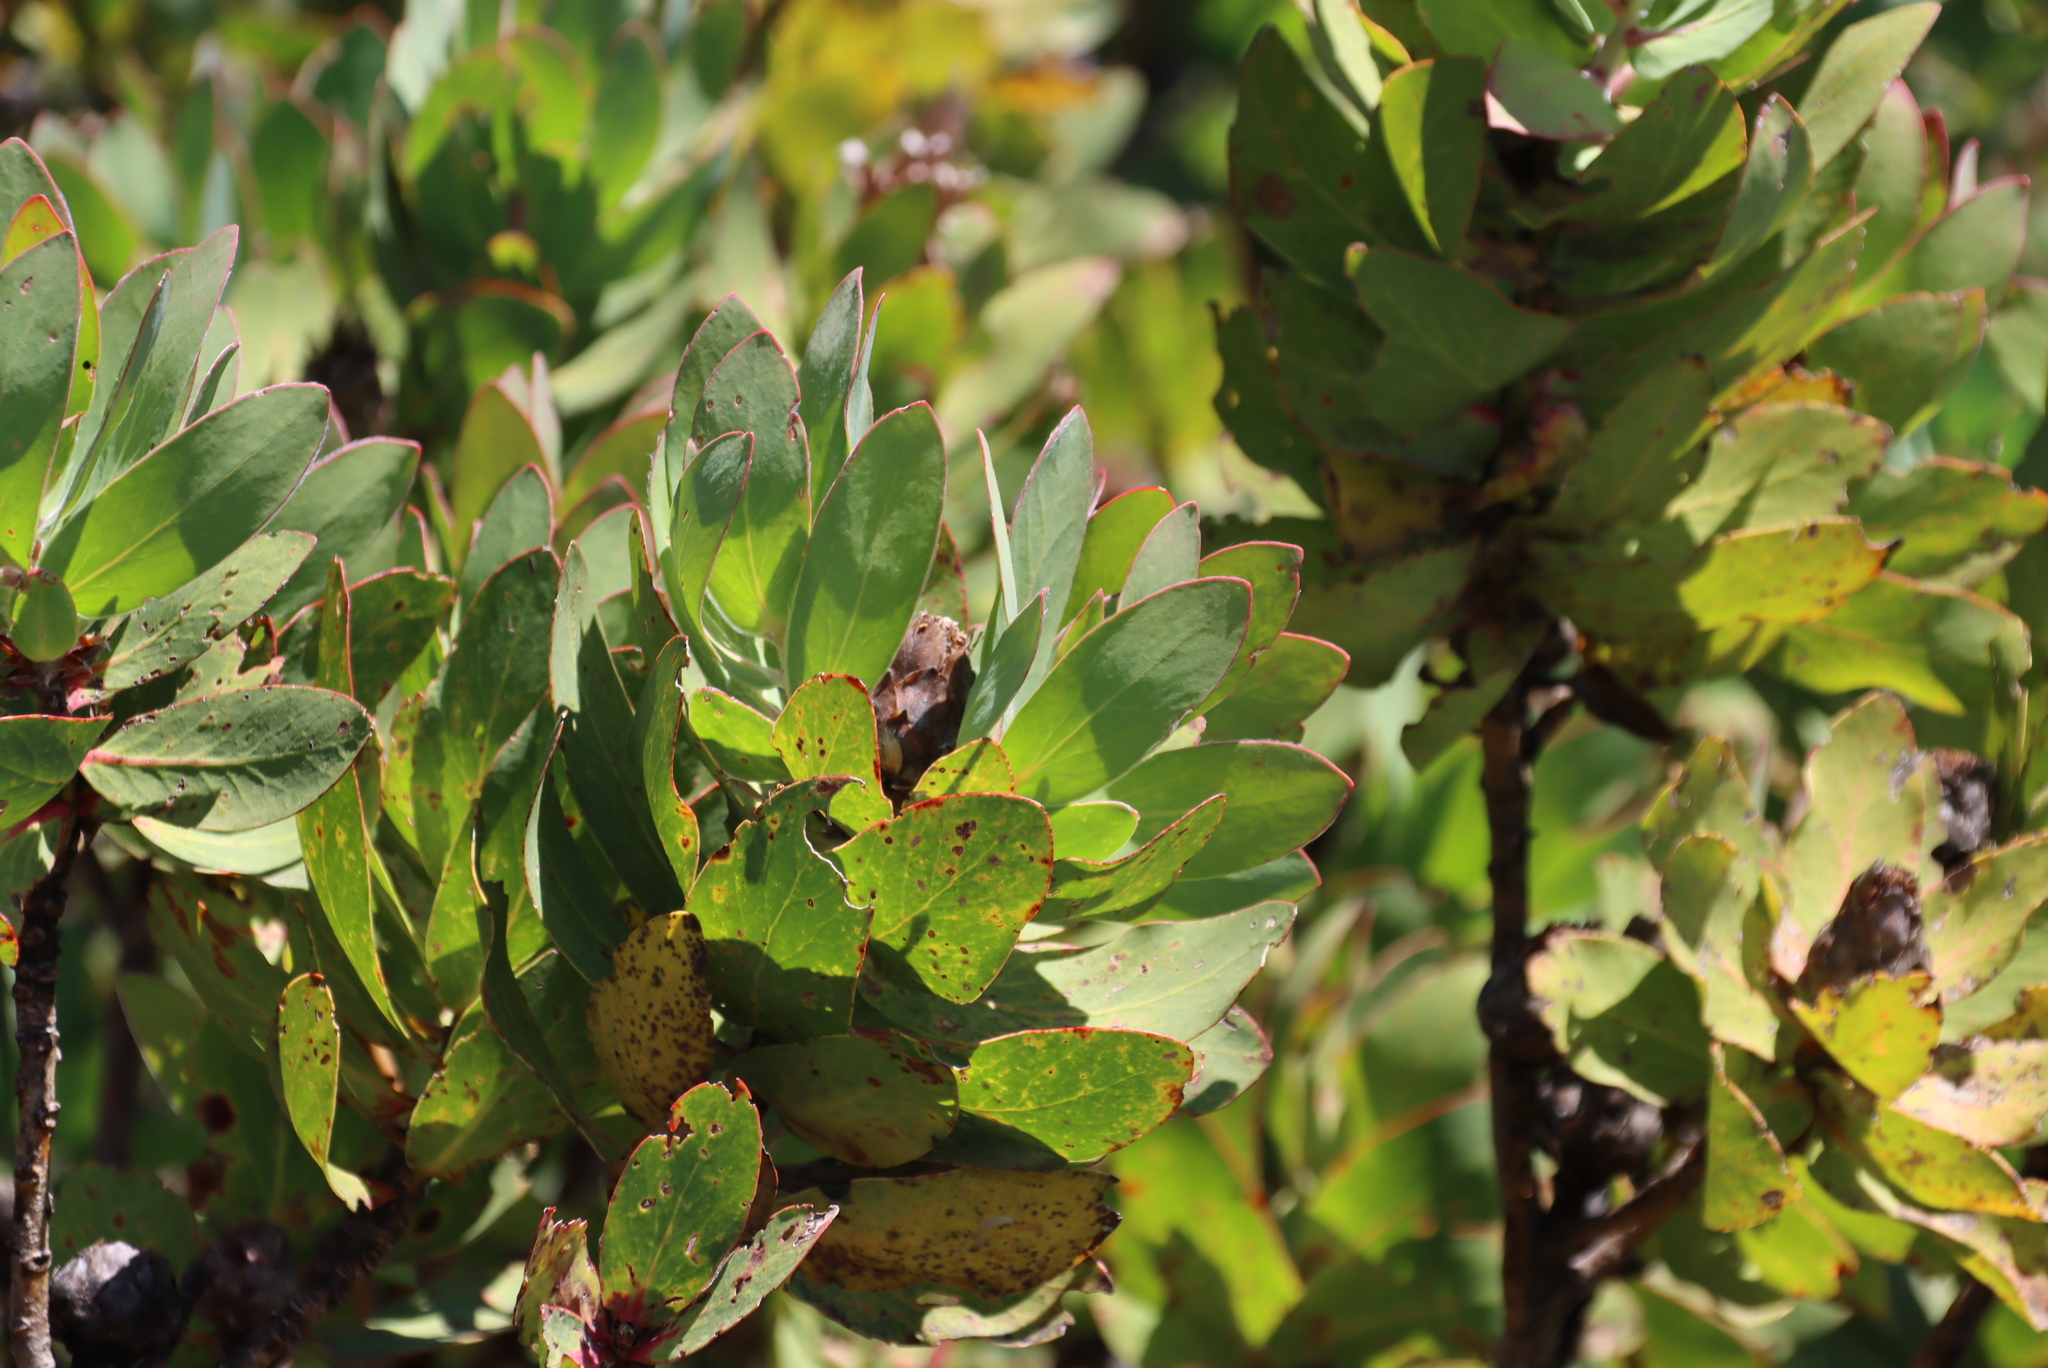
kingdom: Plantae
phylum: Tracheophyta
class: Magnoliopsida
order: Proteales
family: Proteaceae
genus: Protea
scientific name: Protea grandiceps
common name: Red sugarbush
